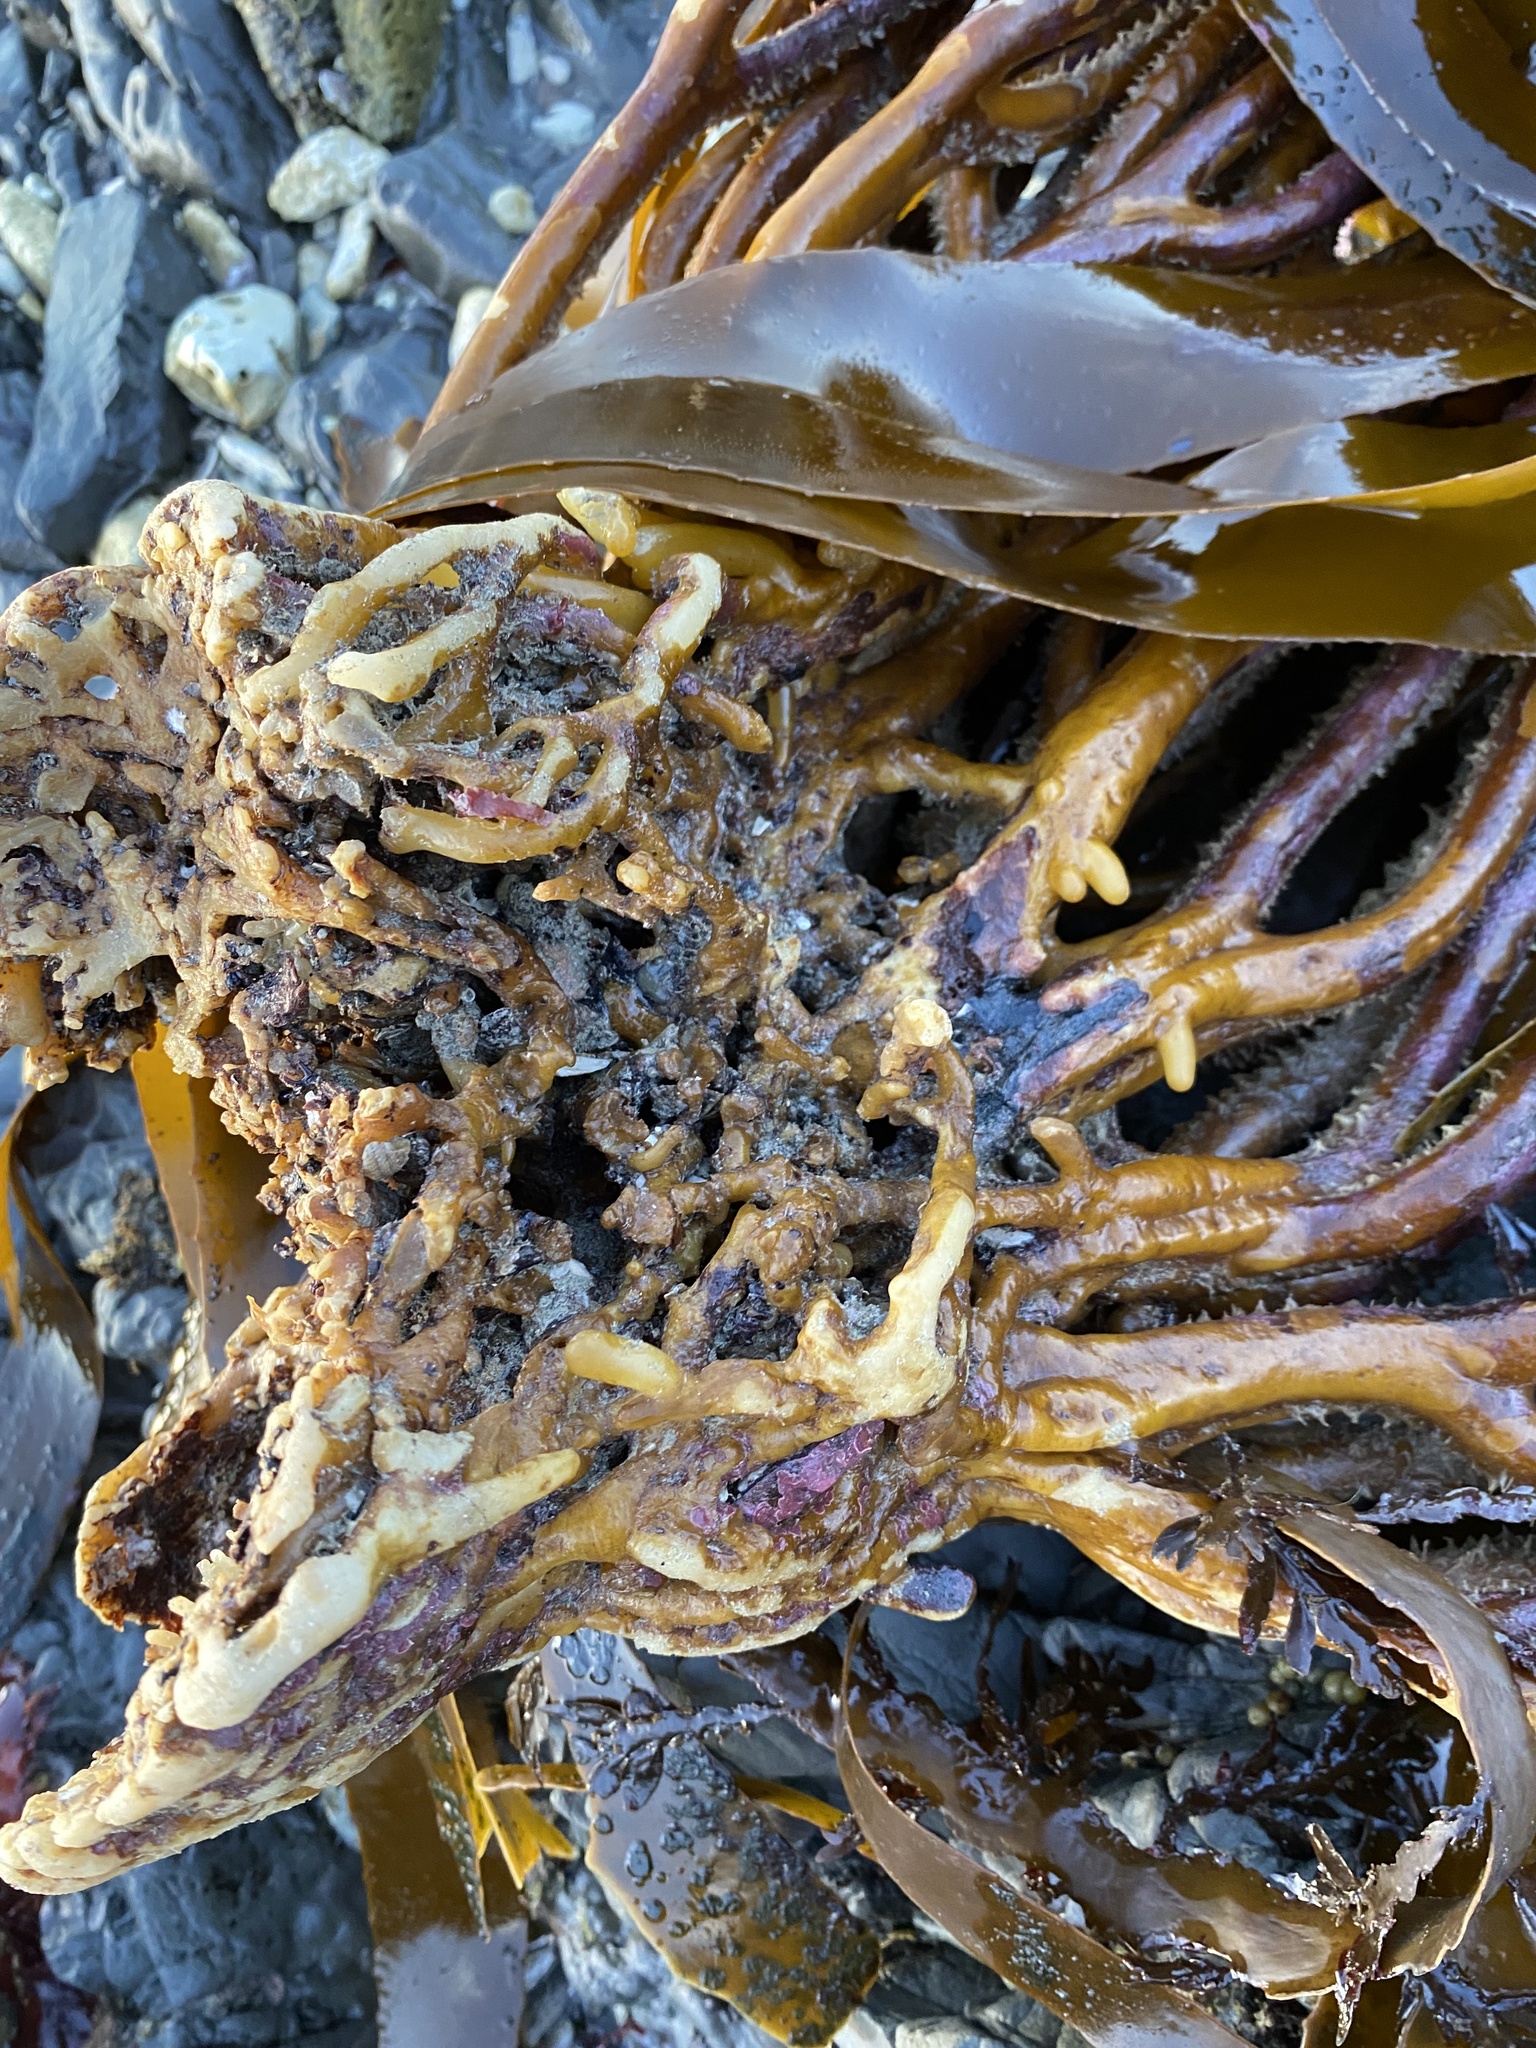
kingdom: Chromista
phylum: Ochrophyta
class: Phaeophyceae
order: Laminariales
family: Lessoniaceae
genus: Lessonia
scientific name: Lessonia
